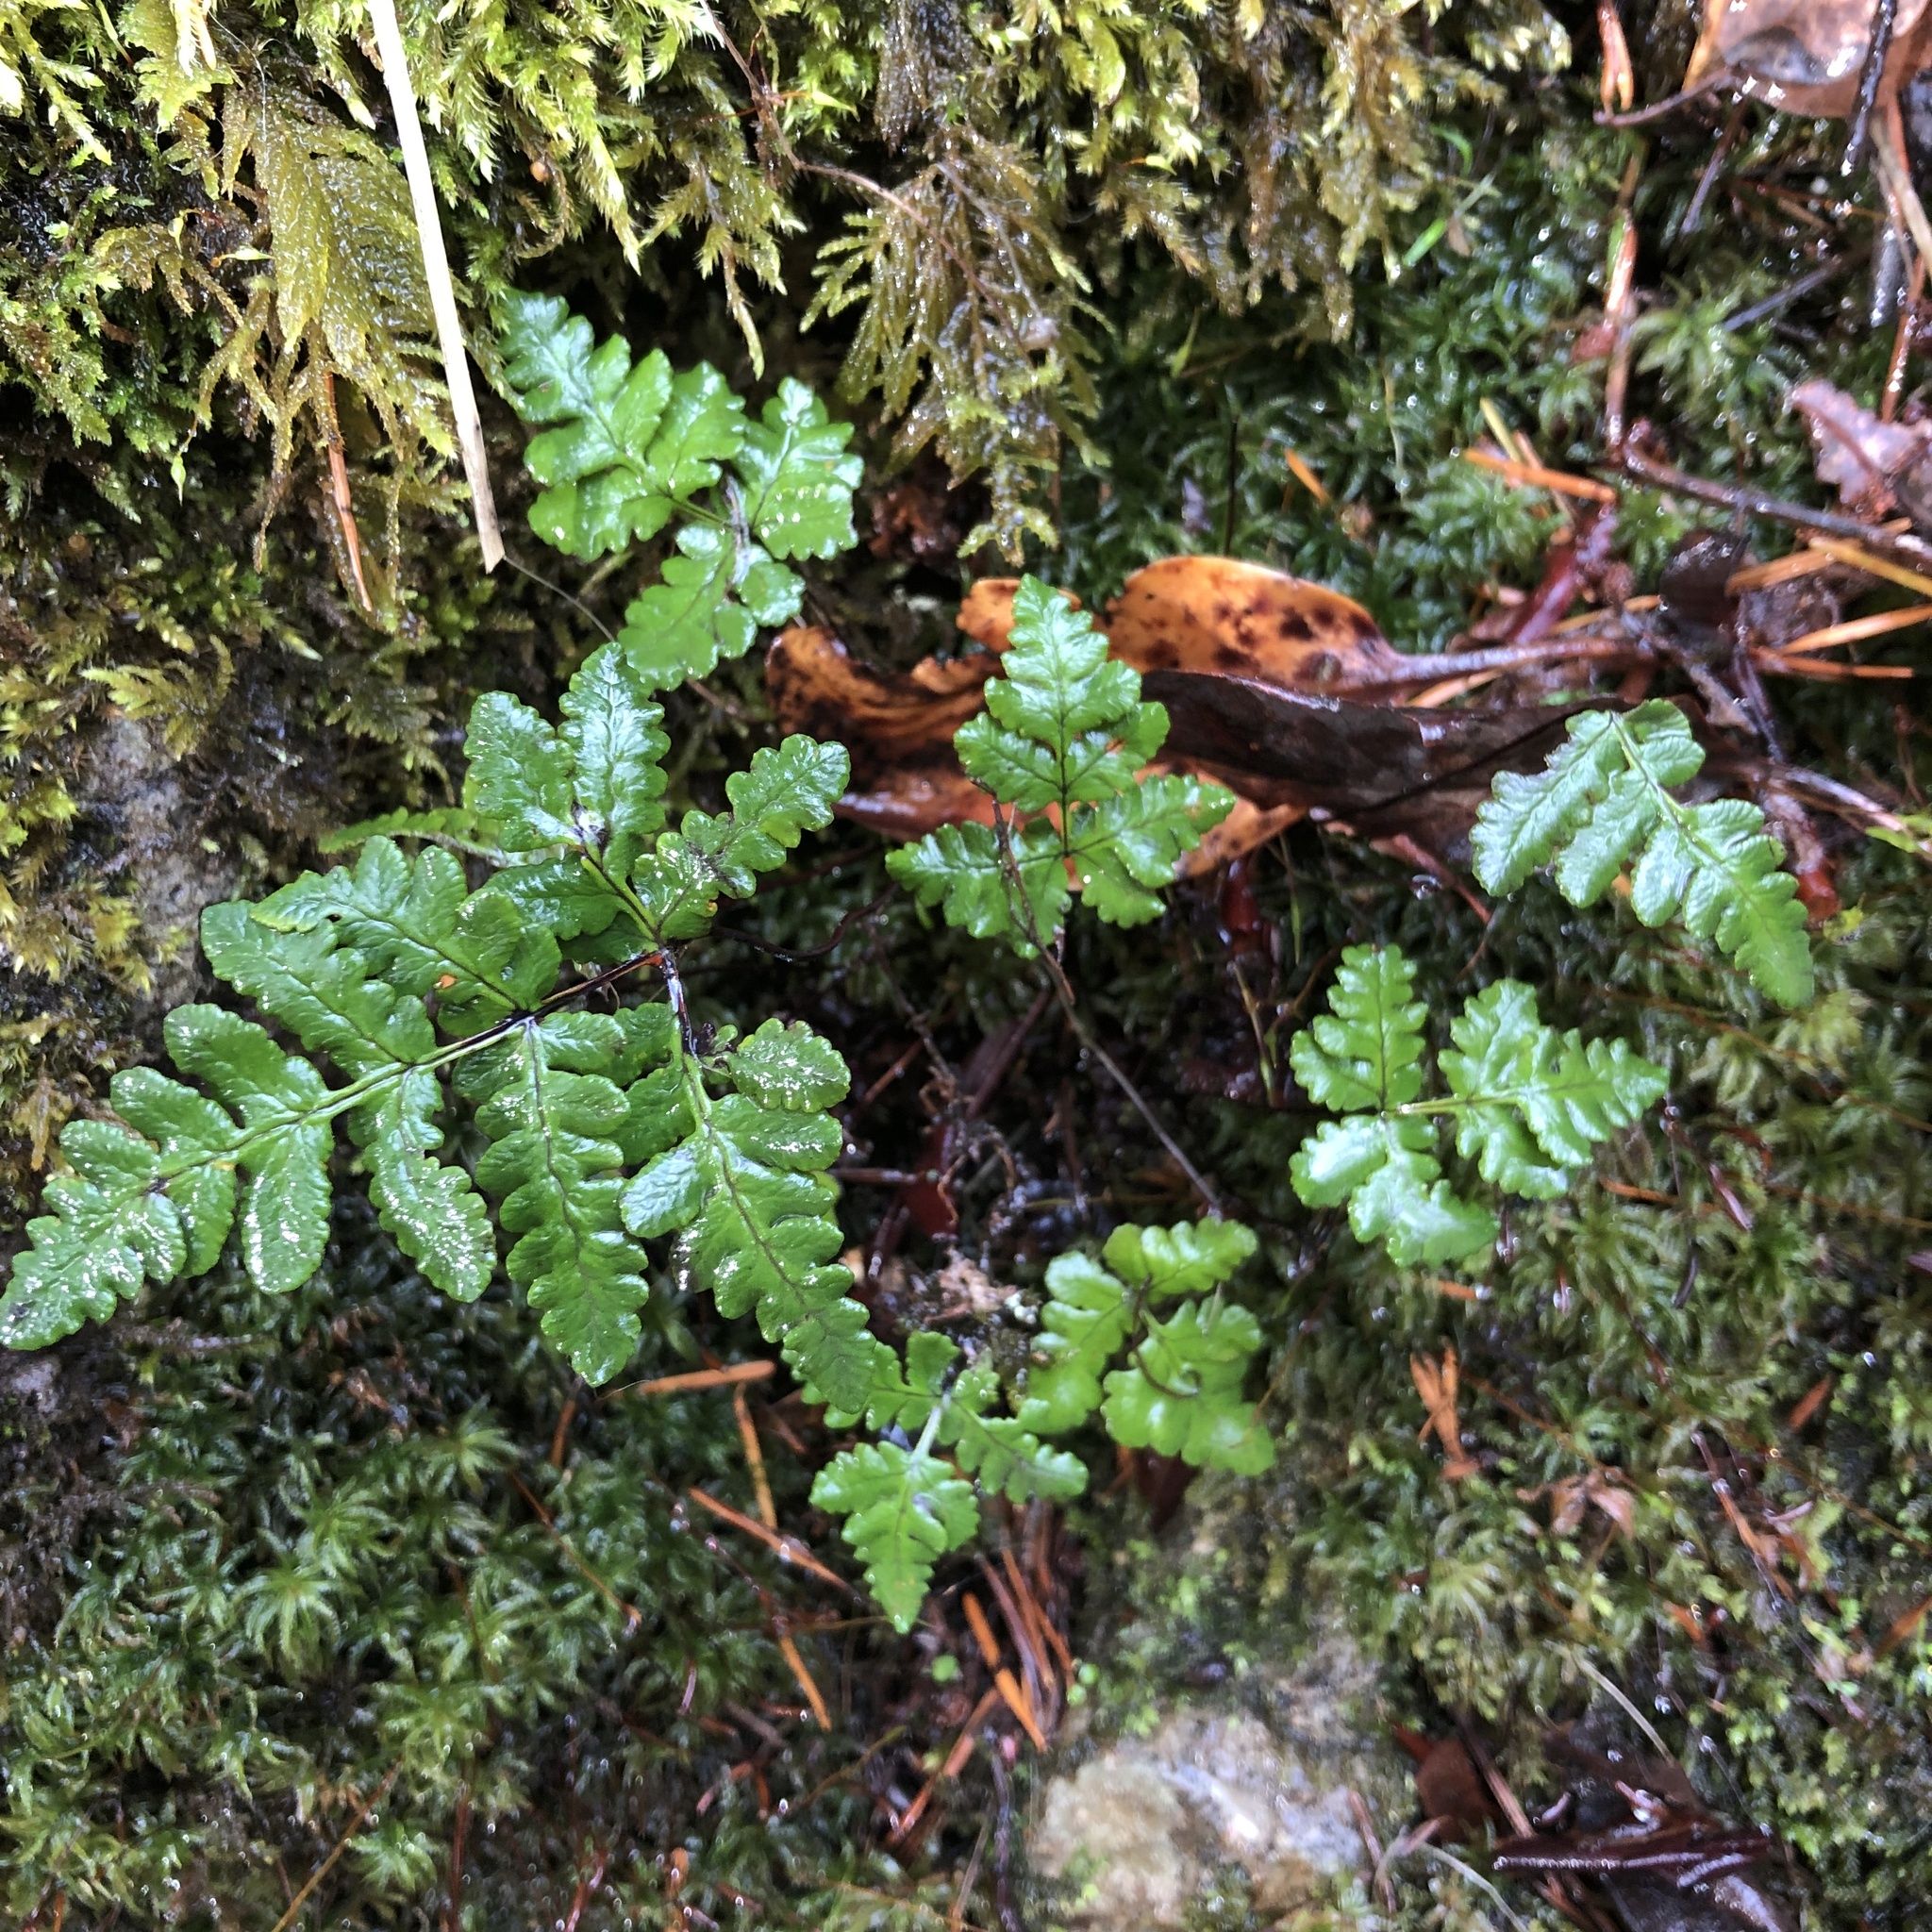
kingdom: Plantae
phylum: Tracheophyta
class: Polypodiopsida
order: Polypodiales
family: Pteridaceae
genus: Pentagramma
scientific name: Pentagramma triangularis
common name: Gold fern
